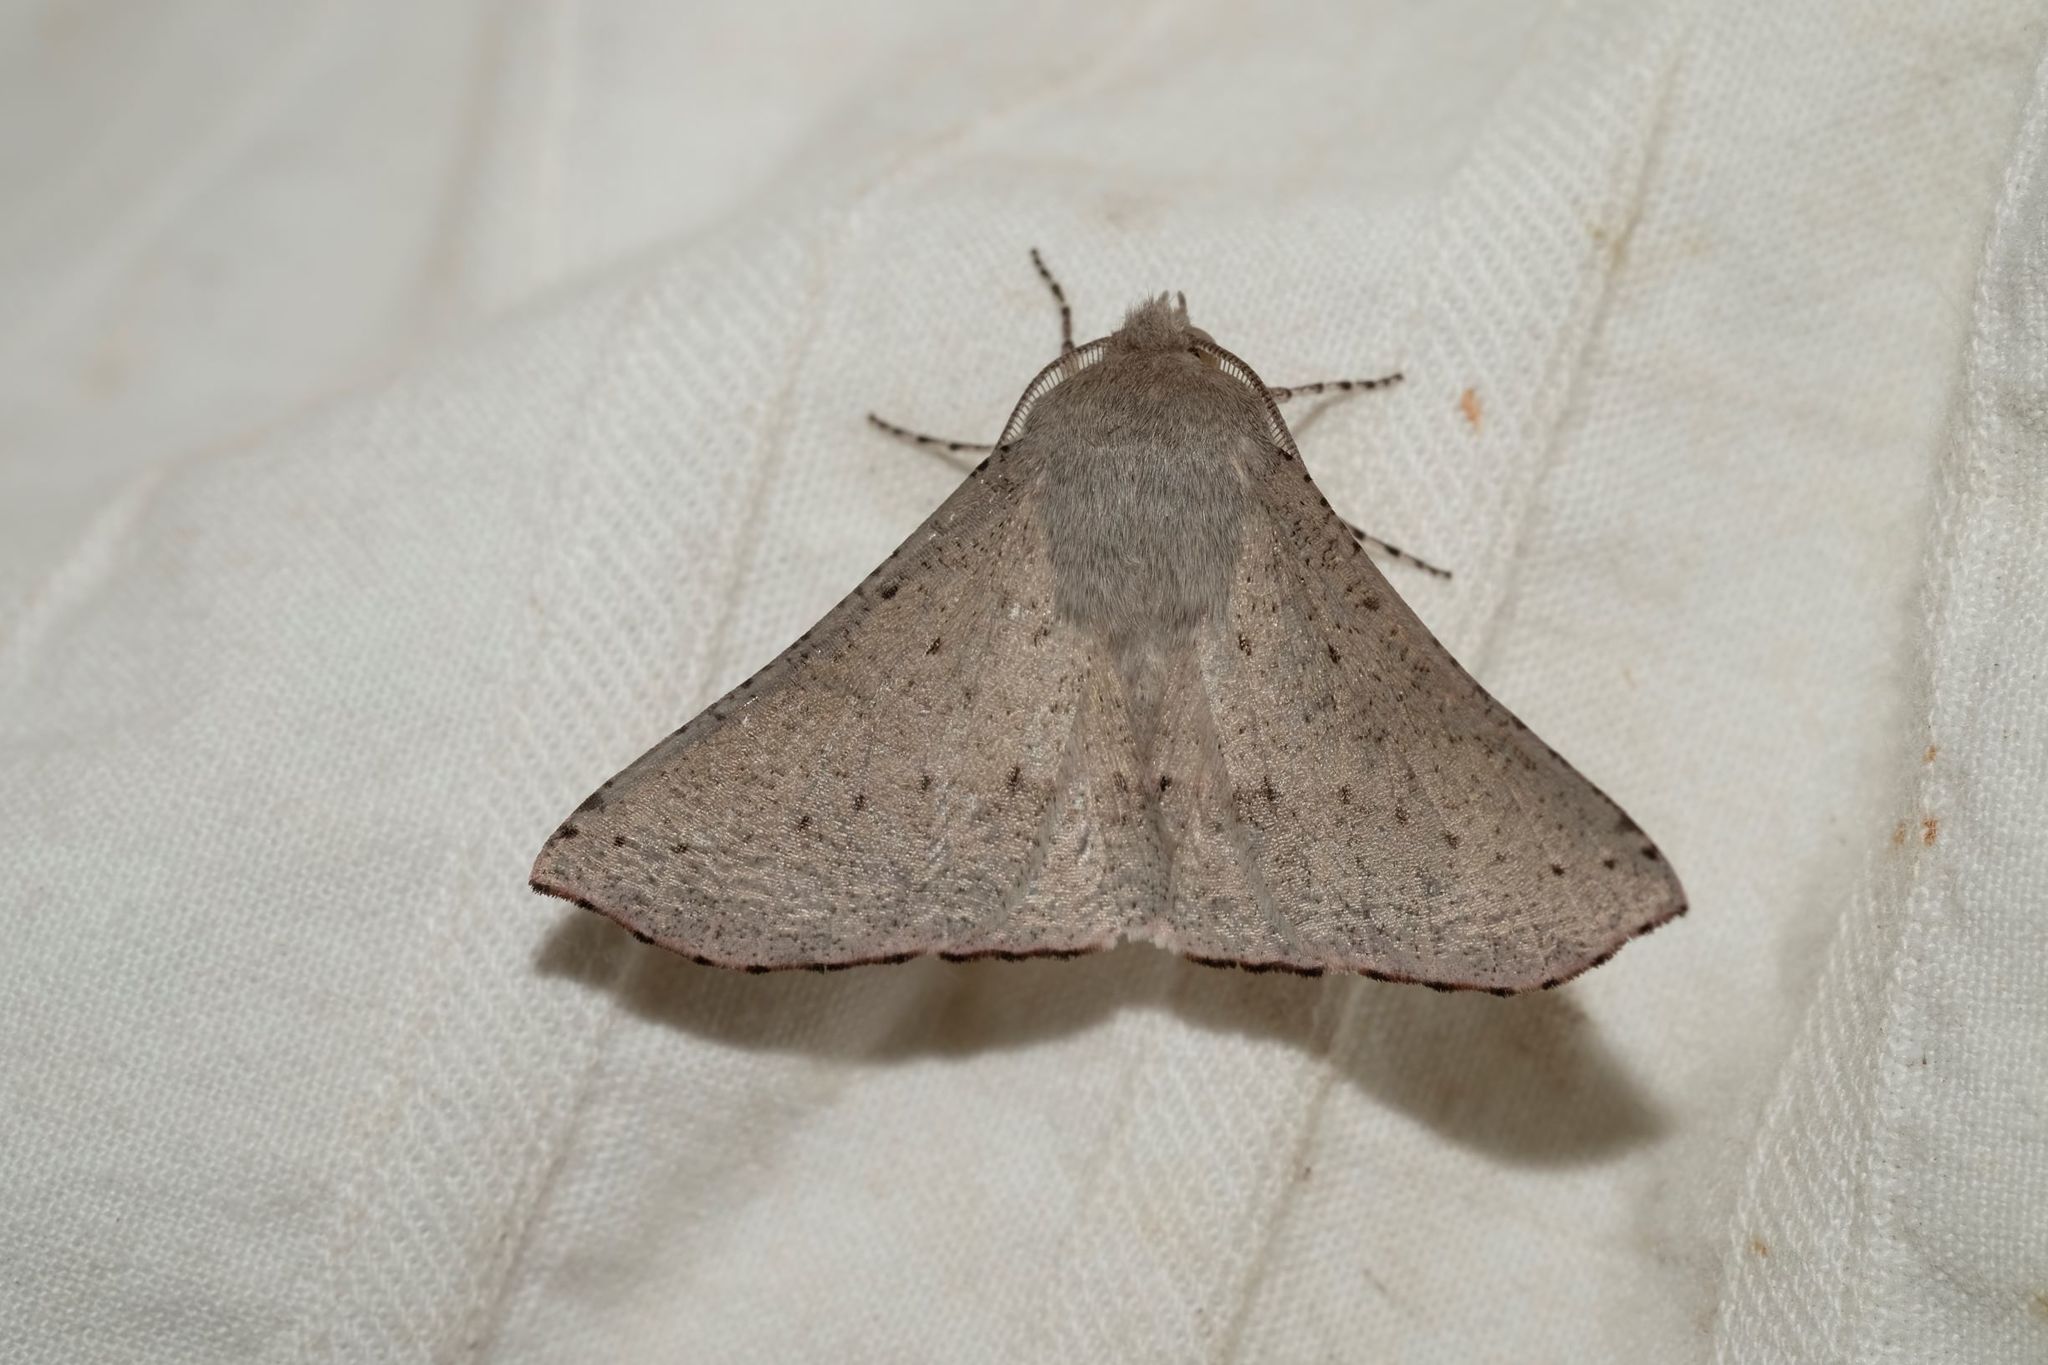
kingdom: Animalia
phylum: Arthropoda
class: Insecta
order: Lepidoptera
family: Geometridae
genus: Oenochroma
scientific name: Oenochroma subustaria
